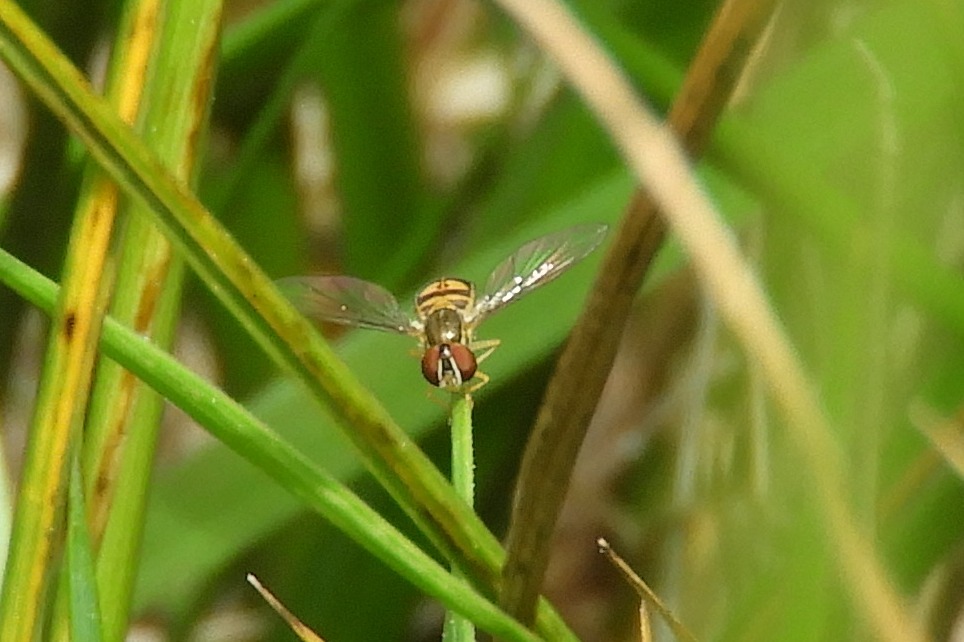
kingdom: Animalia
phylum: Arthropoda
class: Insecta
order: Diptera
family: Syrphidae
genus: Toxomerus
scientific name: Toxomerus marginatus
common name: Syrphid fly
